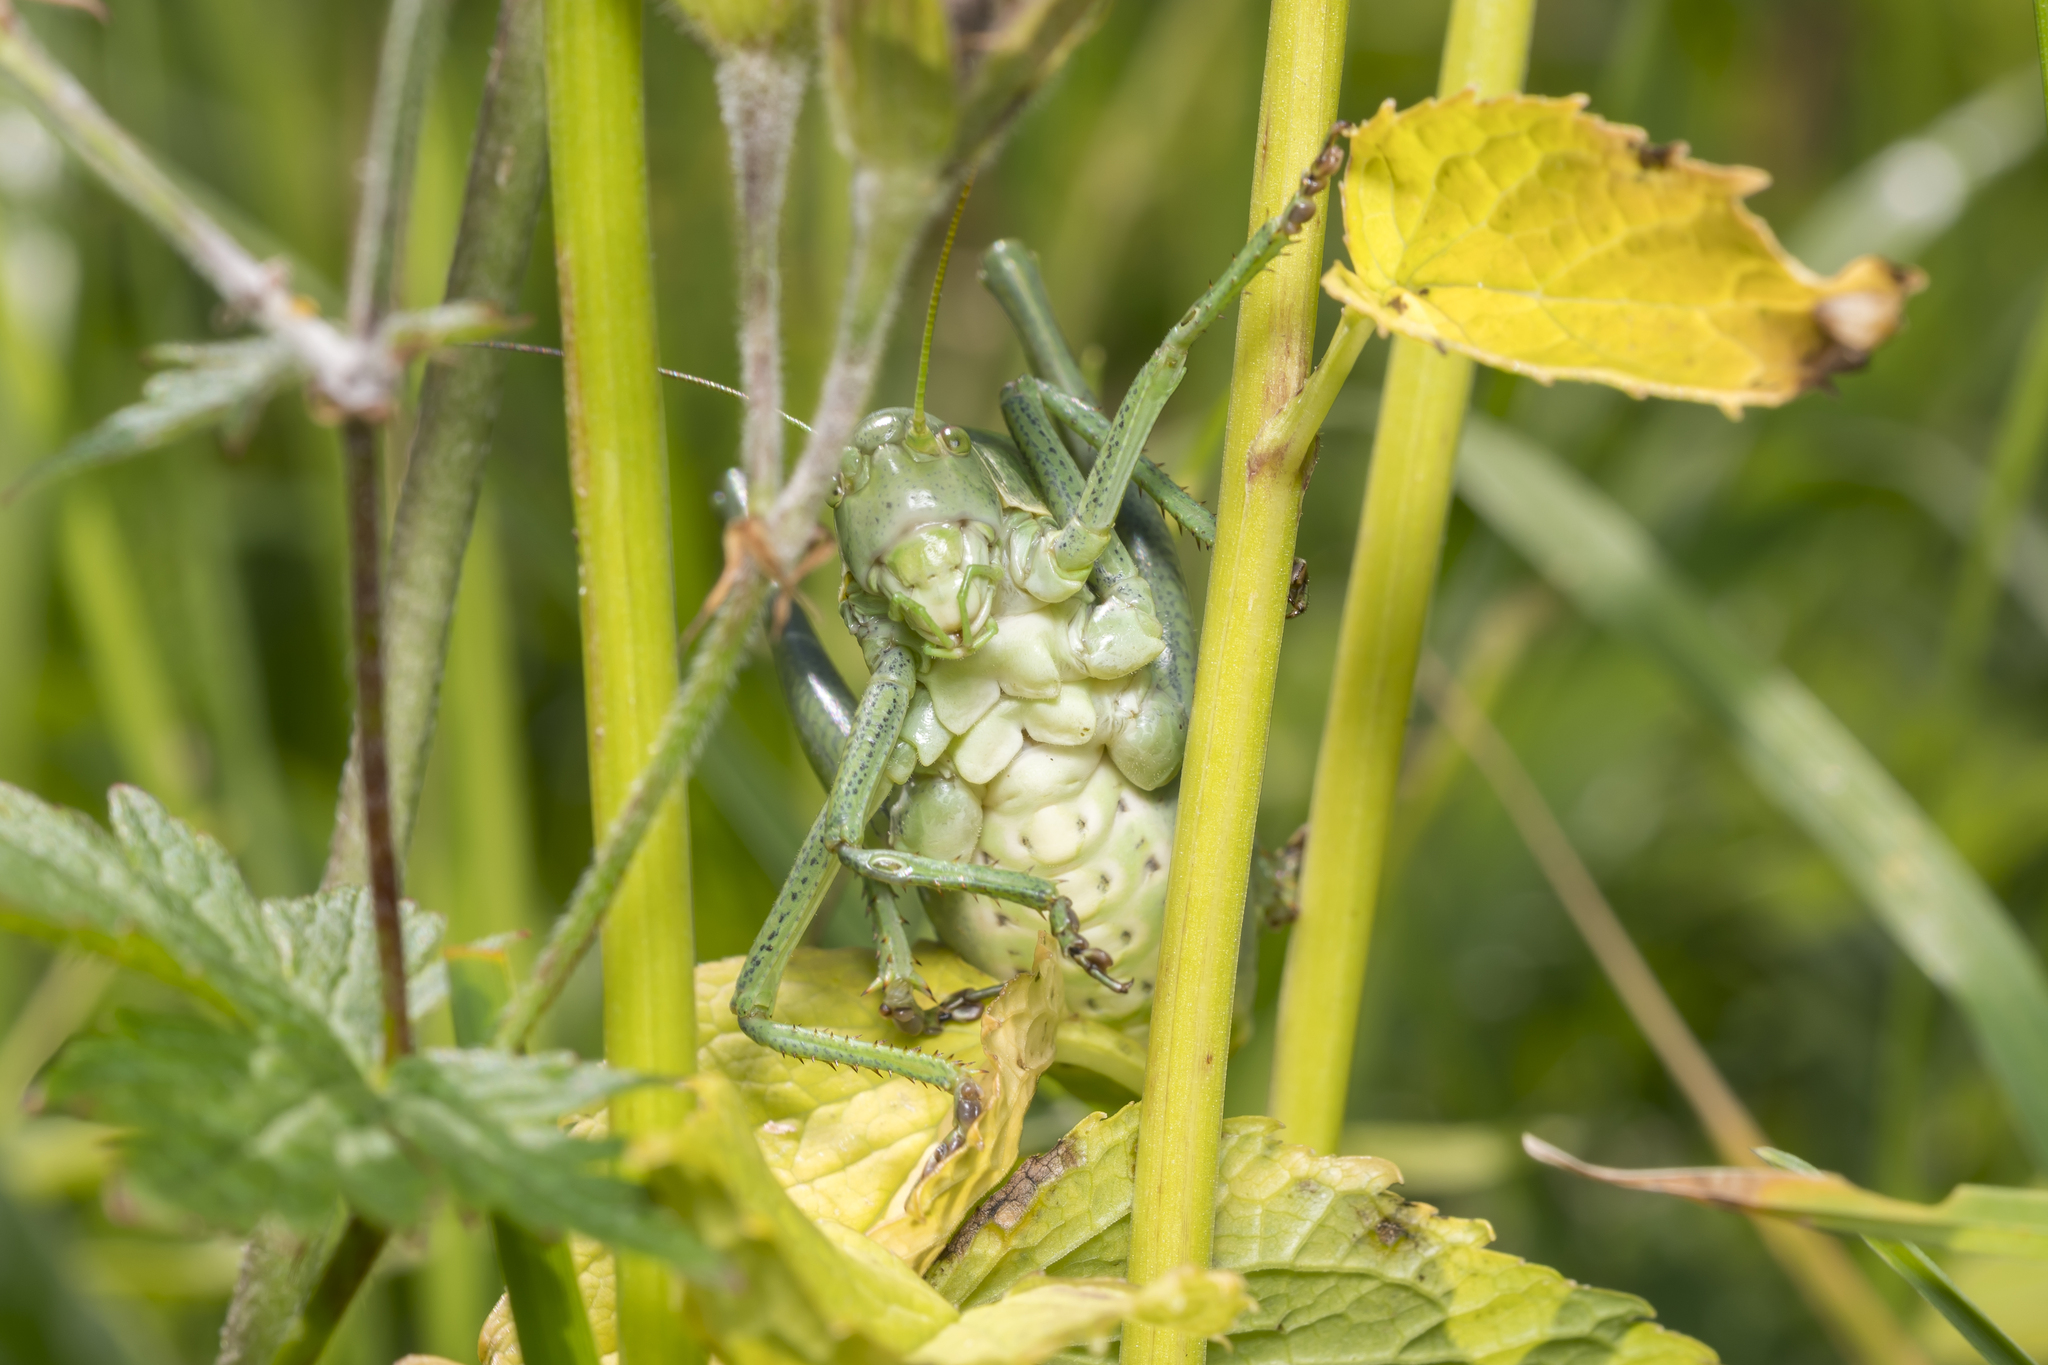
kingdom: Animalia
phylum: Arthropoda
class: Insecta
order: Orthoptera
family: Tettigoniidae
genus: Polysarcus
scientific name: Polysarcus denticauda
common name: Large saw-tailed bush-cricket
